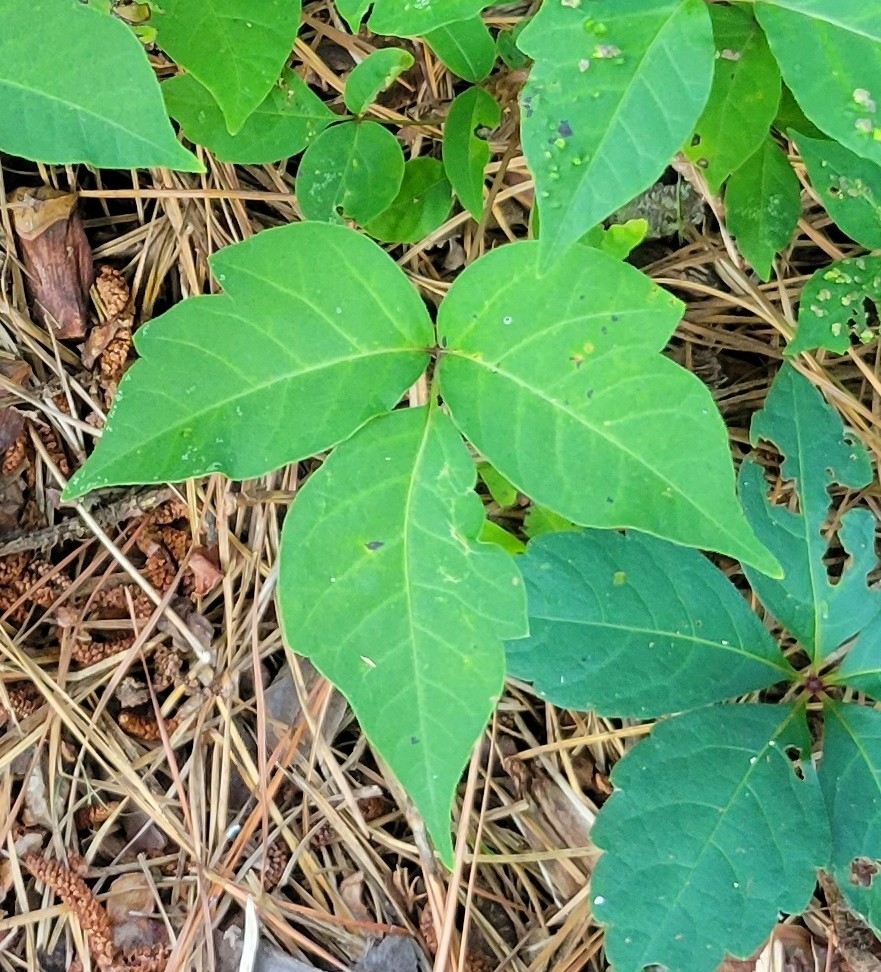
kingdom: Plantae
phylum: Tracheophyta
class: Magnoliopsida
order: Sapindales
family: Anacardiaceae
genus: Toxicodendron
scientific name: Toxicodendron radicans
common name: Poison ivy
